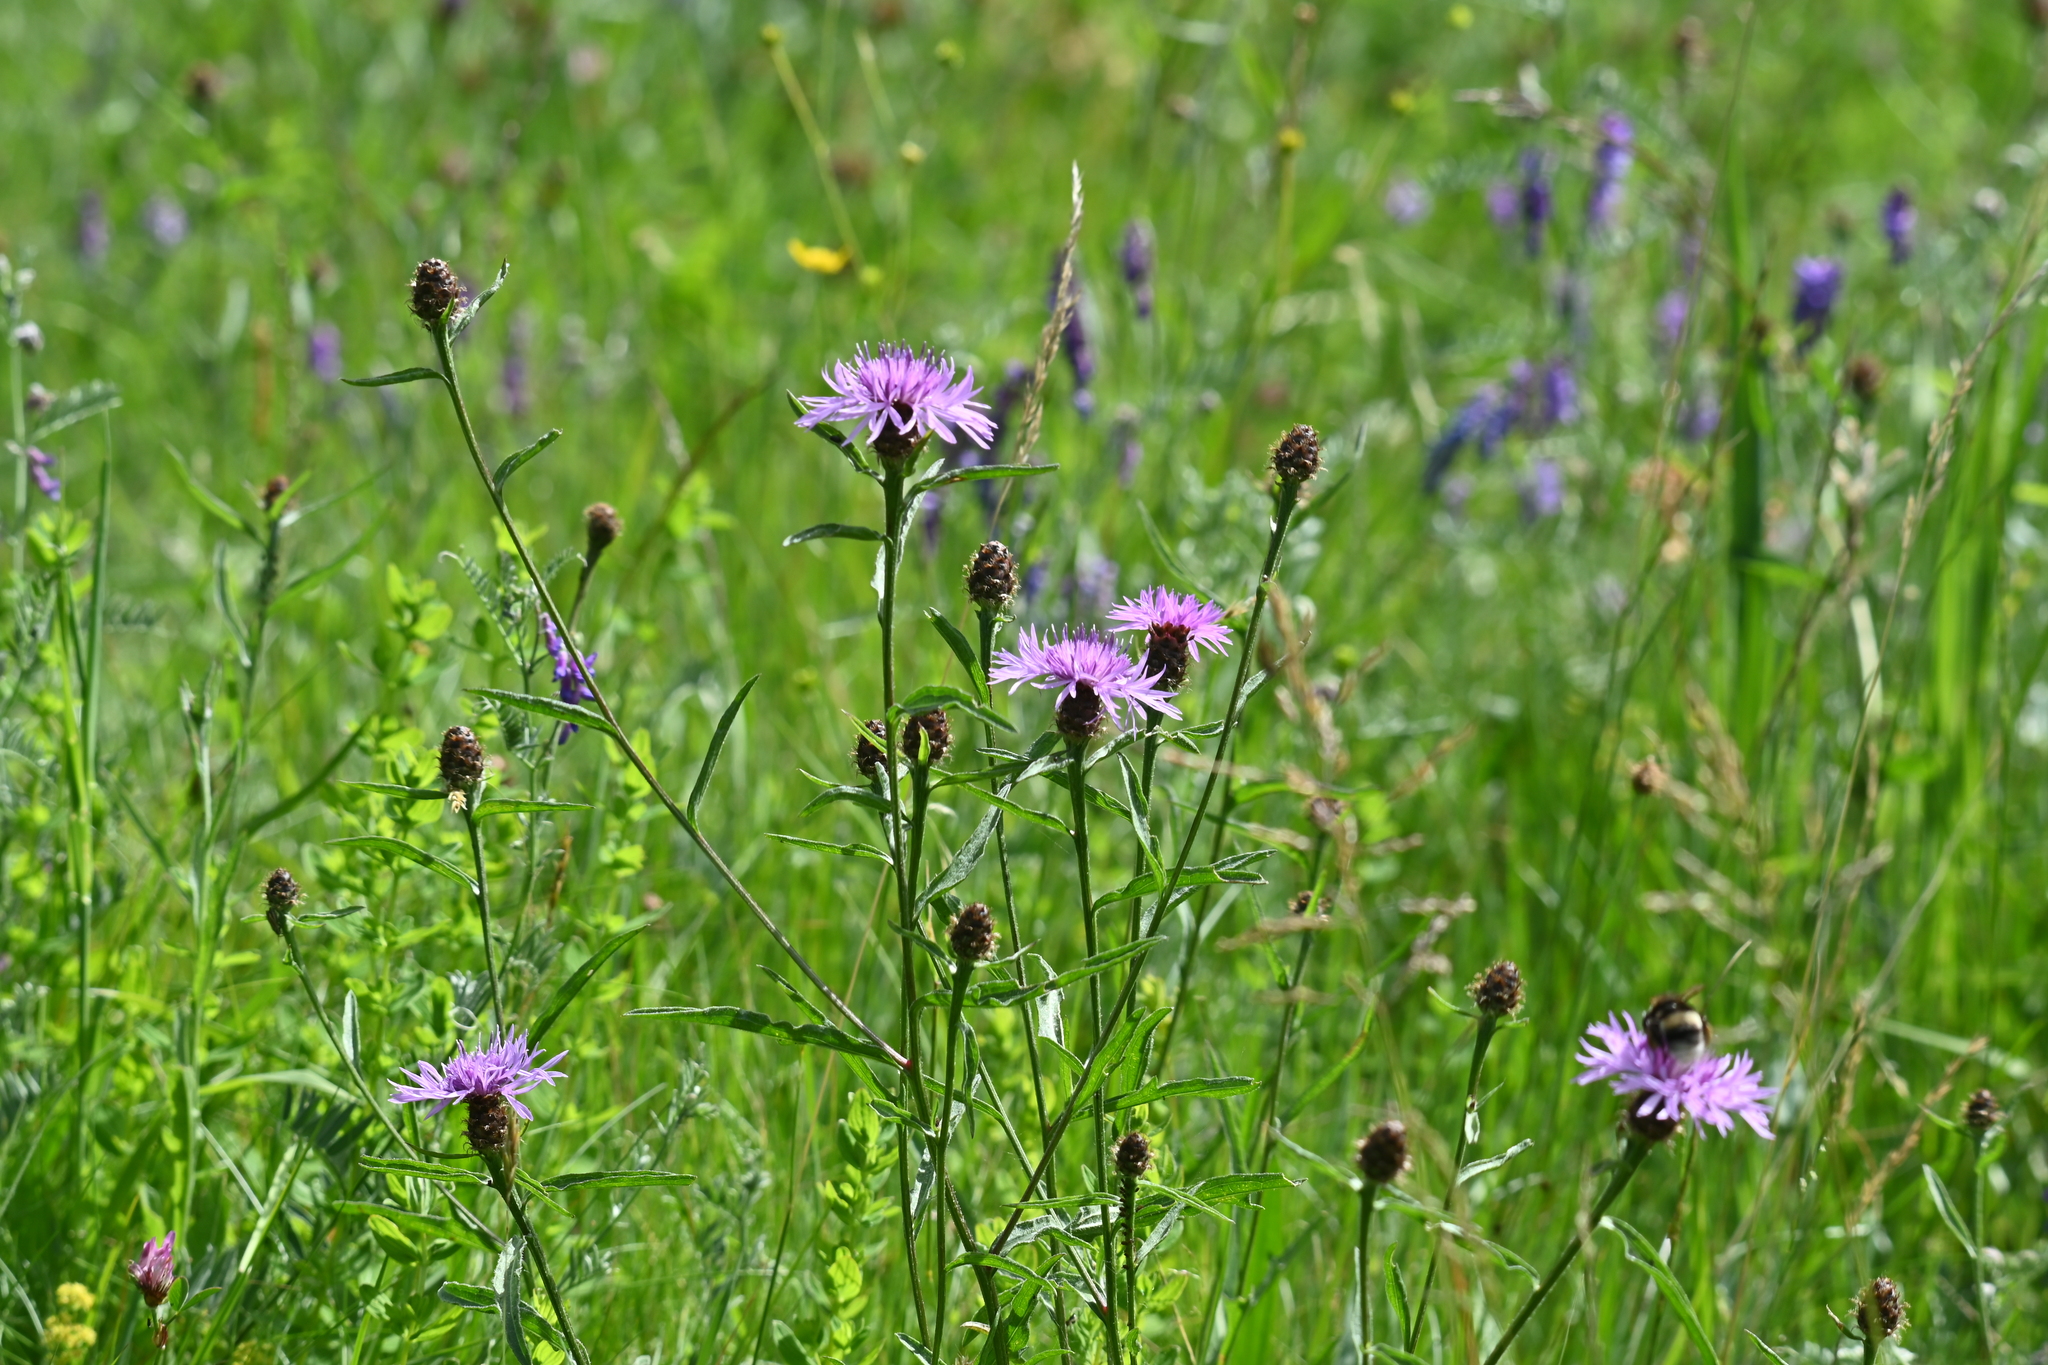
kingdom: Plantae
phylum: Tracheophyta
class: Magnoliopsida
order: Asterales
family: Asteraceae
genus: Centaurea
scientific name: Centaurea jacea
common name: Brown knapweed
